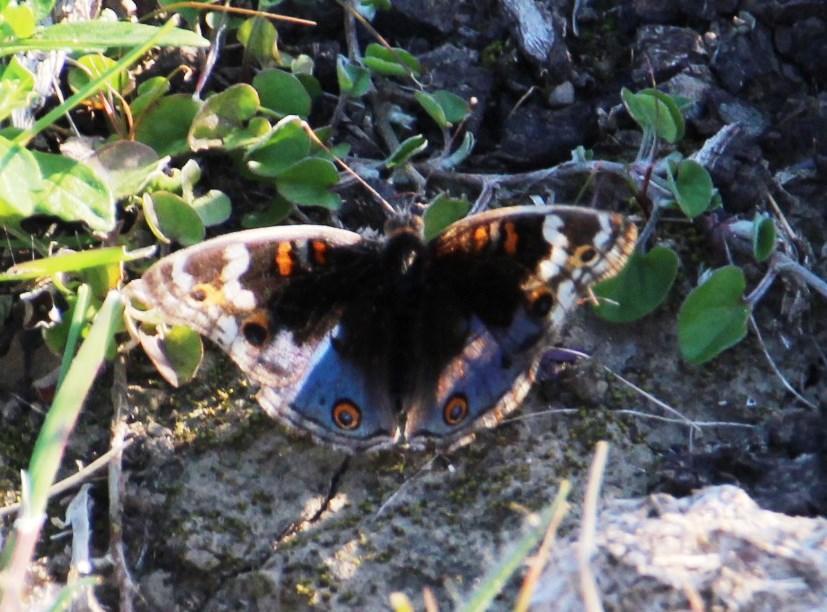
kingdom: Animalia
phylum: Arthropoda
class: Insecta
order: Lepidoptera
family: Nymphalidae
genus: Junonia
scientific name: Junonia orithya
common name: Blue pansy
